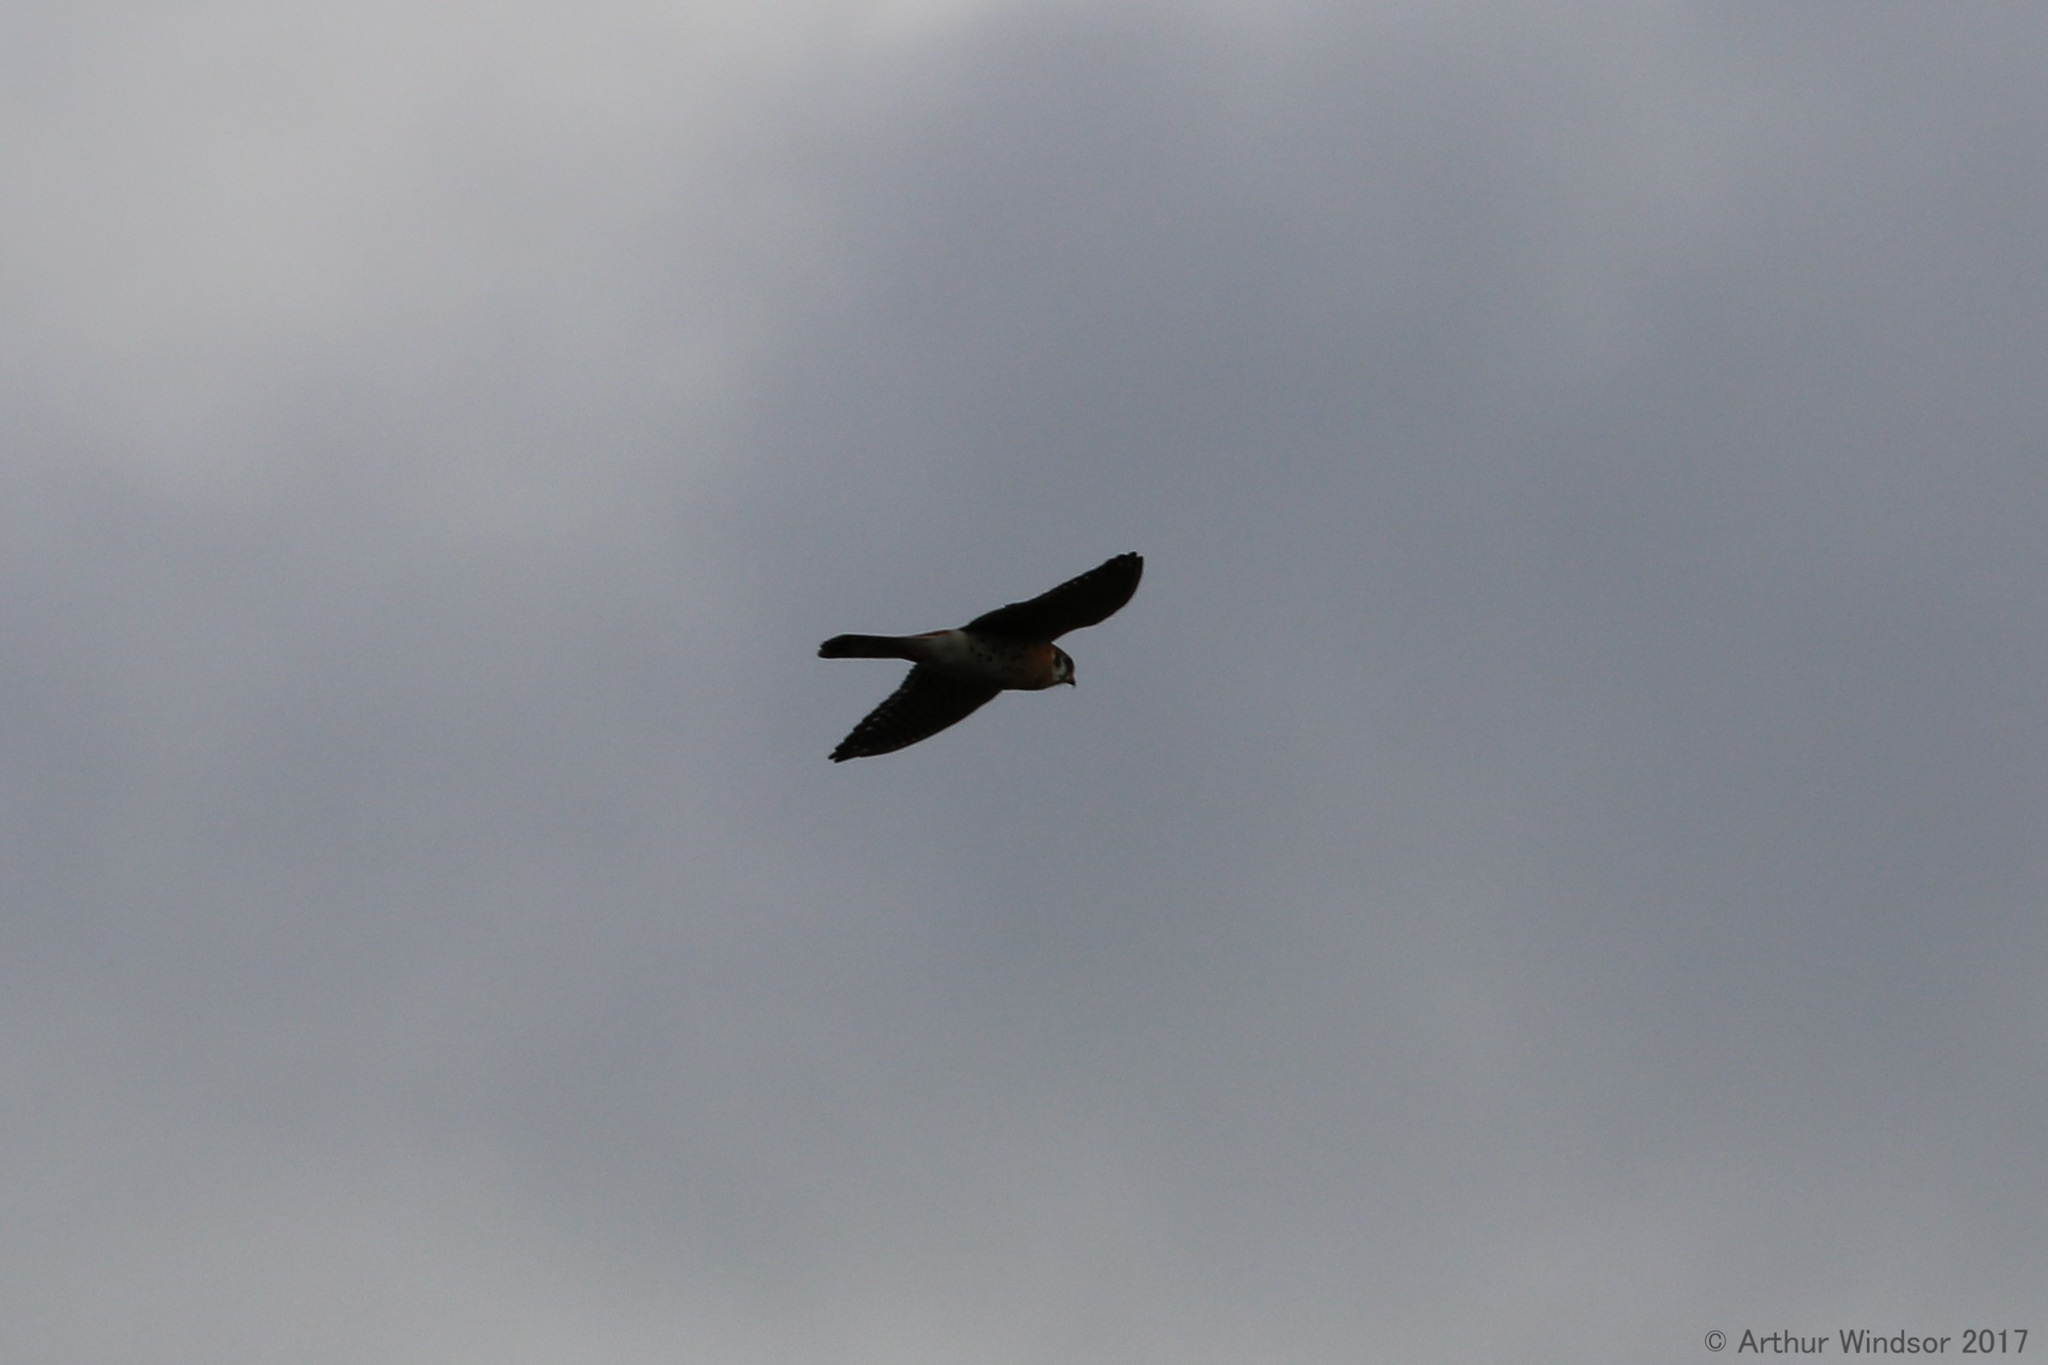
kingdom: Animalia
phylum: Chordata
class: Aves
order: Falconiformes
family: Falconidae
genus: Falco
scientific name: Falco sparverius
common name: American kestrel
